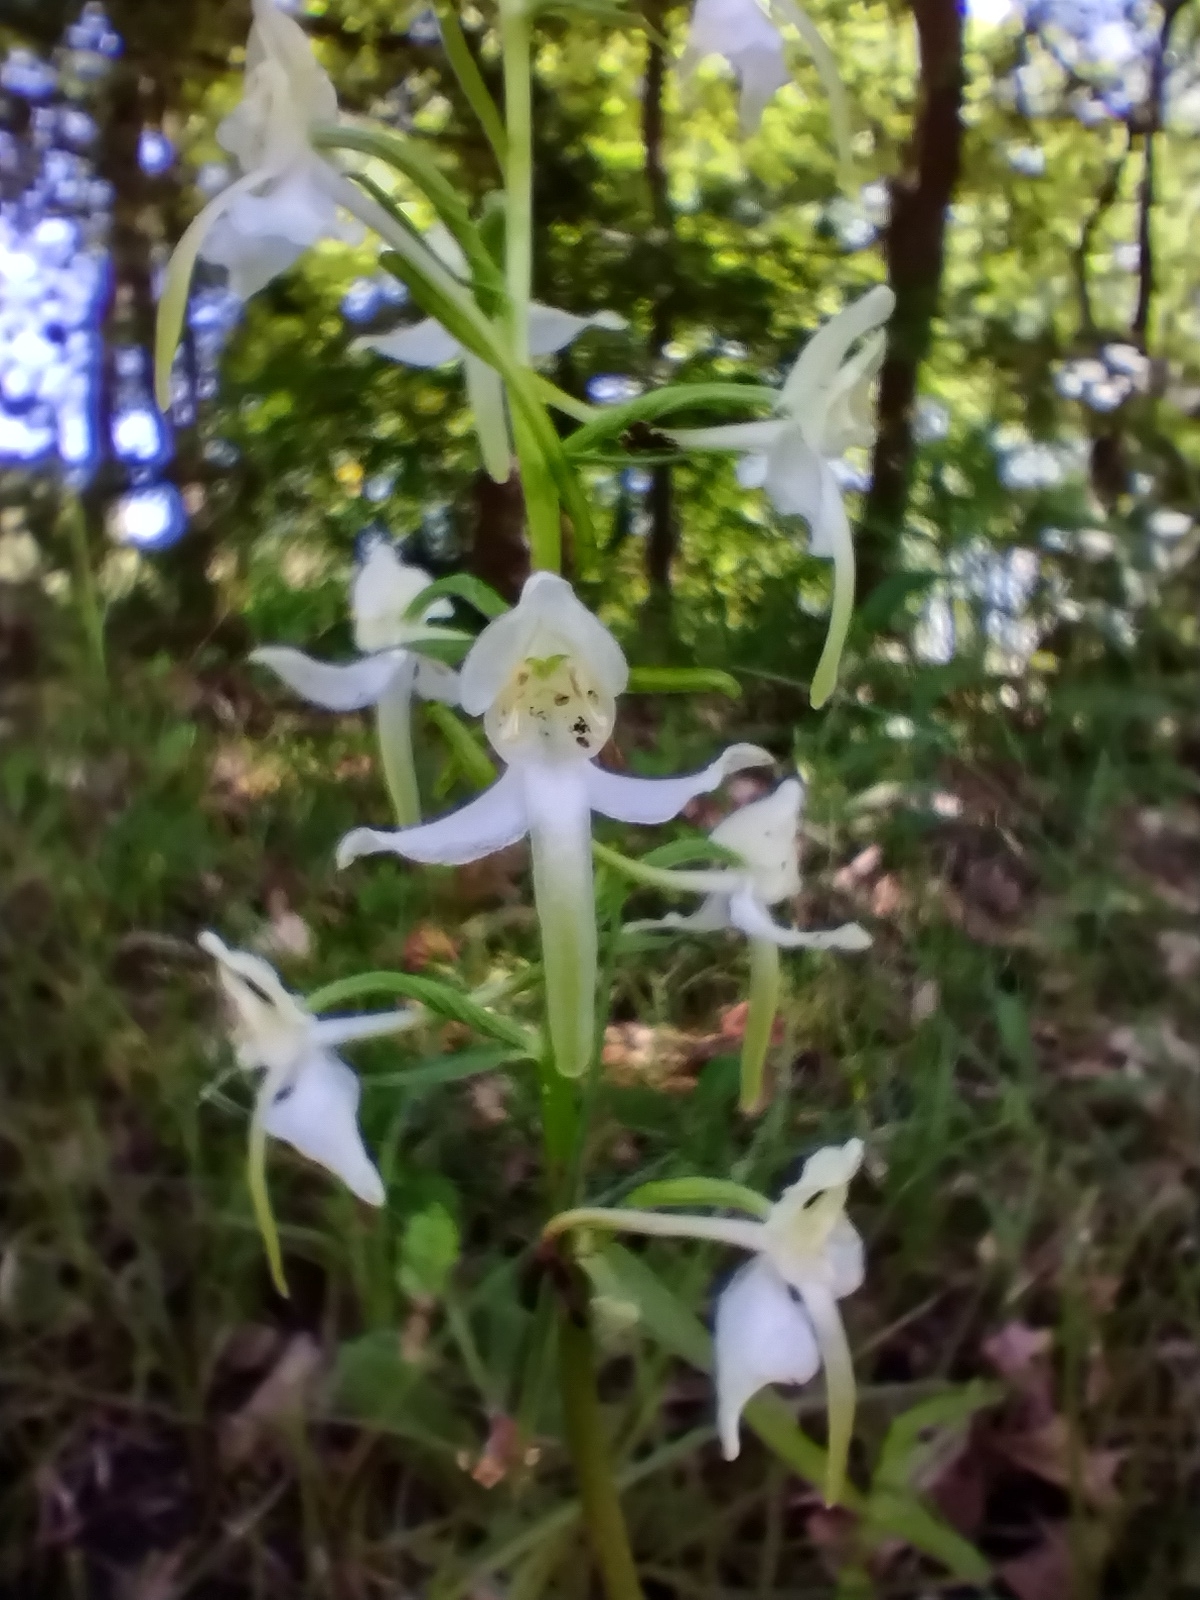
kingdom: Plantae
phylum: Tracheophyta
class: Liliopsida
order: Asparagales
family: Orchidaceae
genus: Platanthera
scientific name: Platanthera chlorantha
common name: Greater butterfly-orchid
